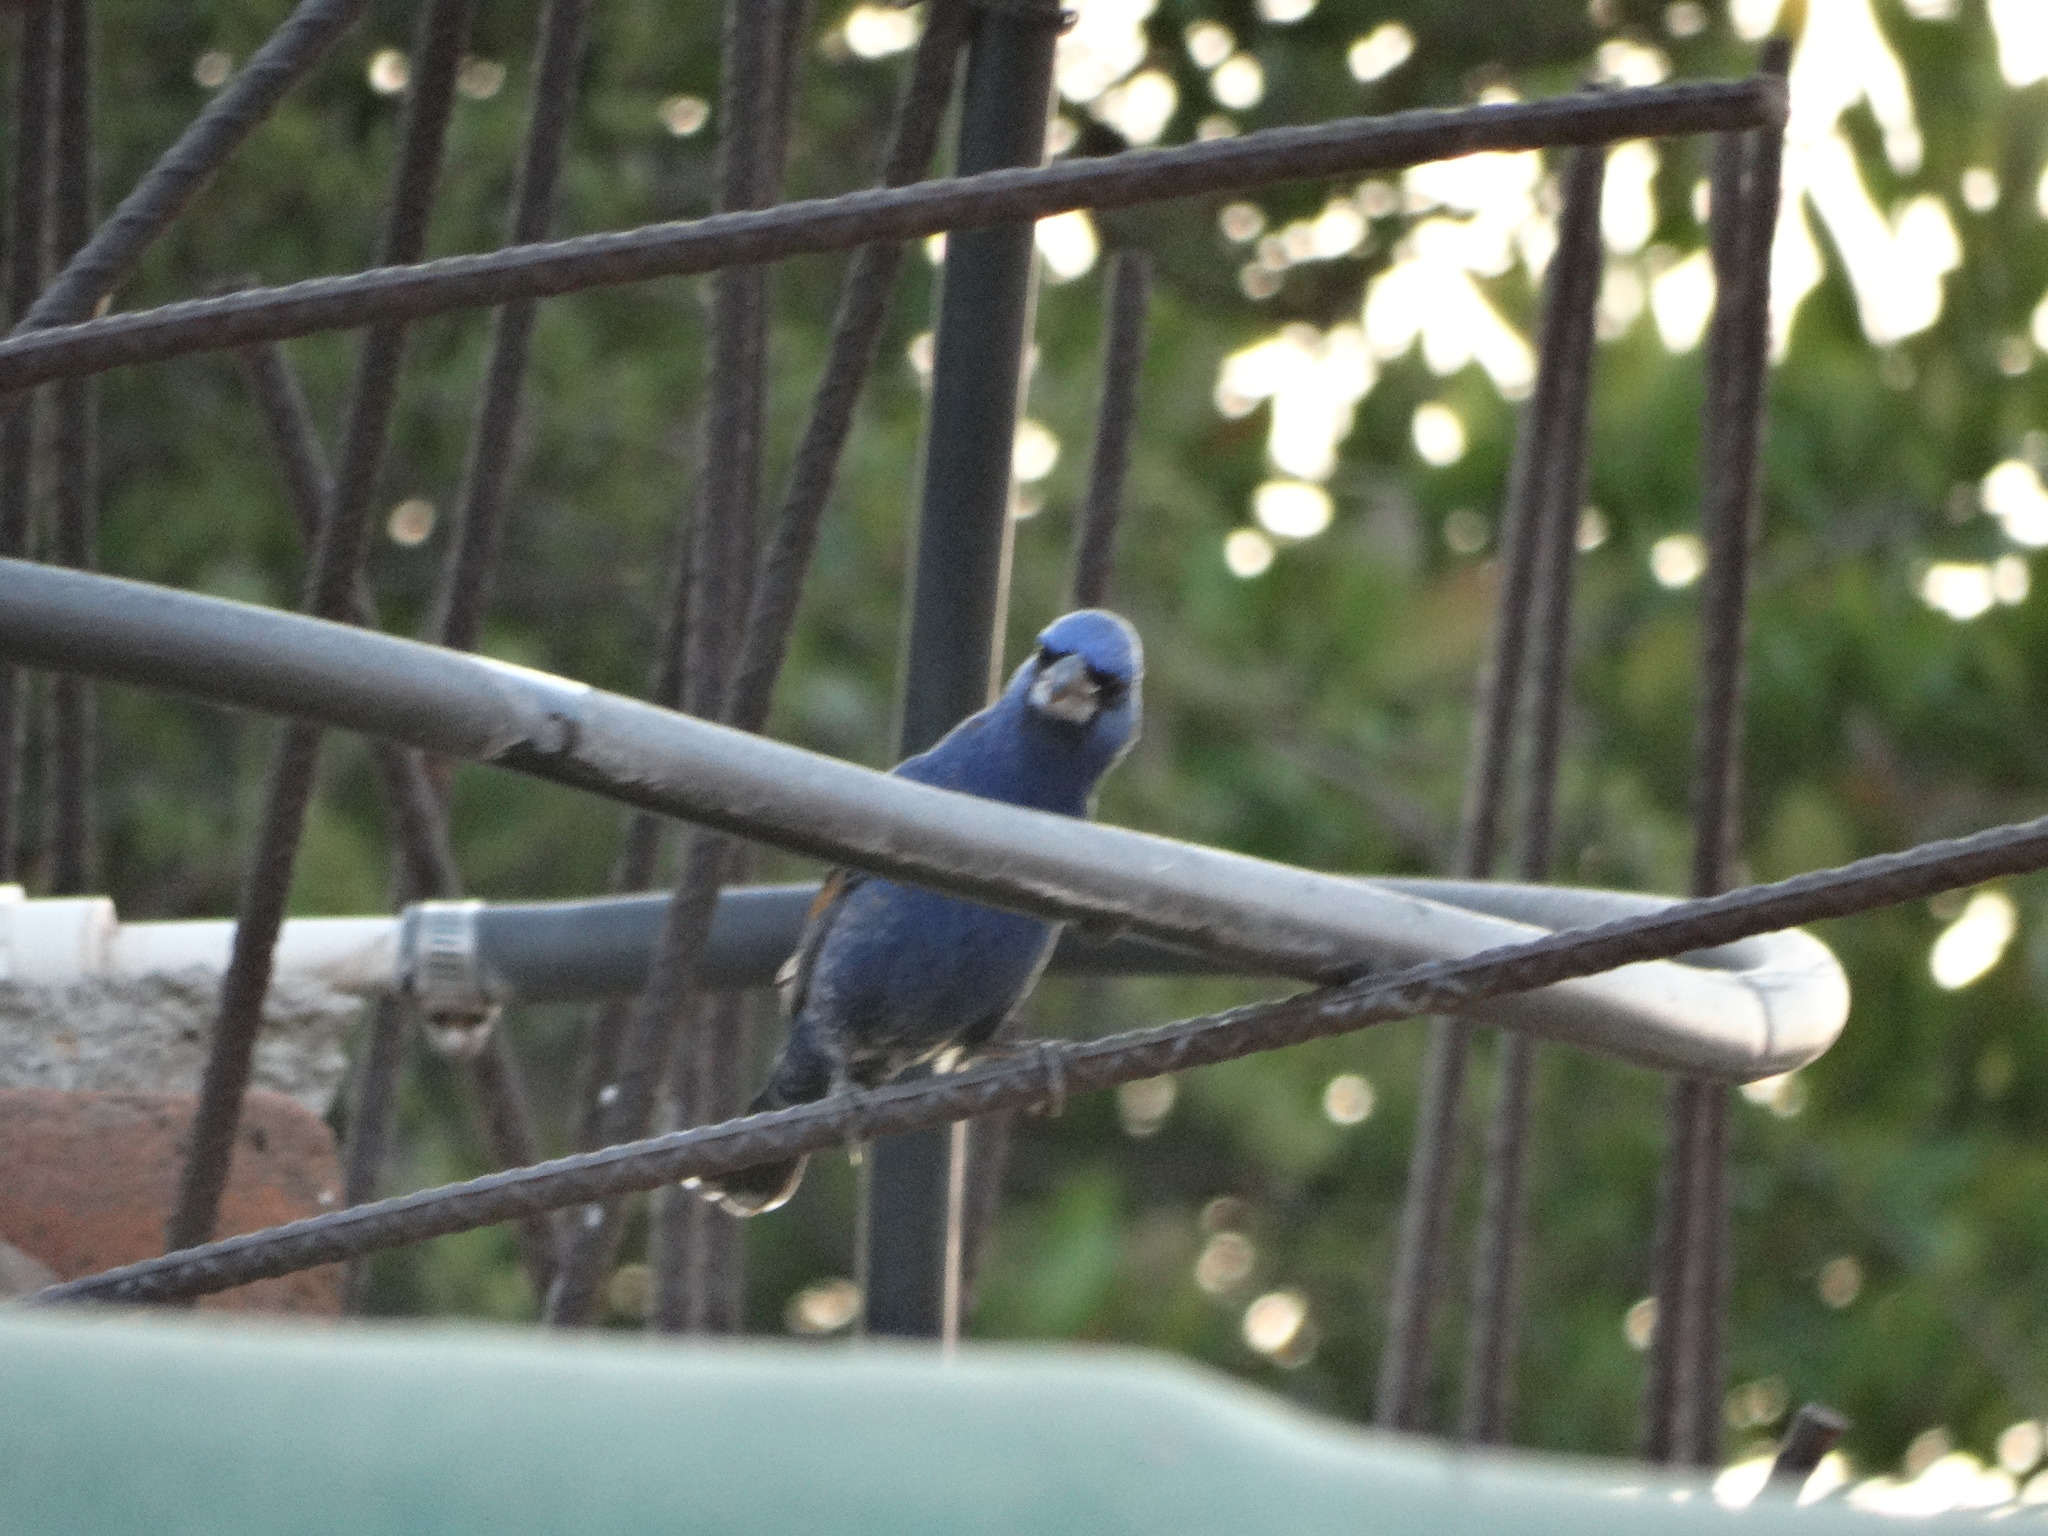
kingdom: Animalia
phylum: Chordata
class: Aves
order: Passeriformes
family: Cardinalidae
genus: Passerina
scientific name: Passerina caerulea
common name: Blue grosbeak
